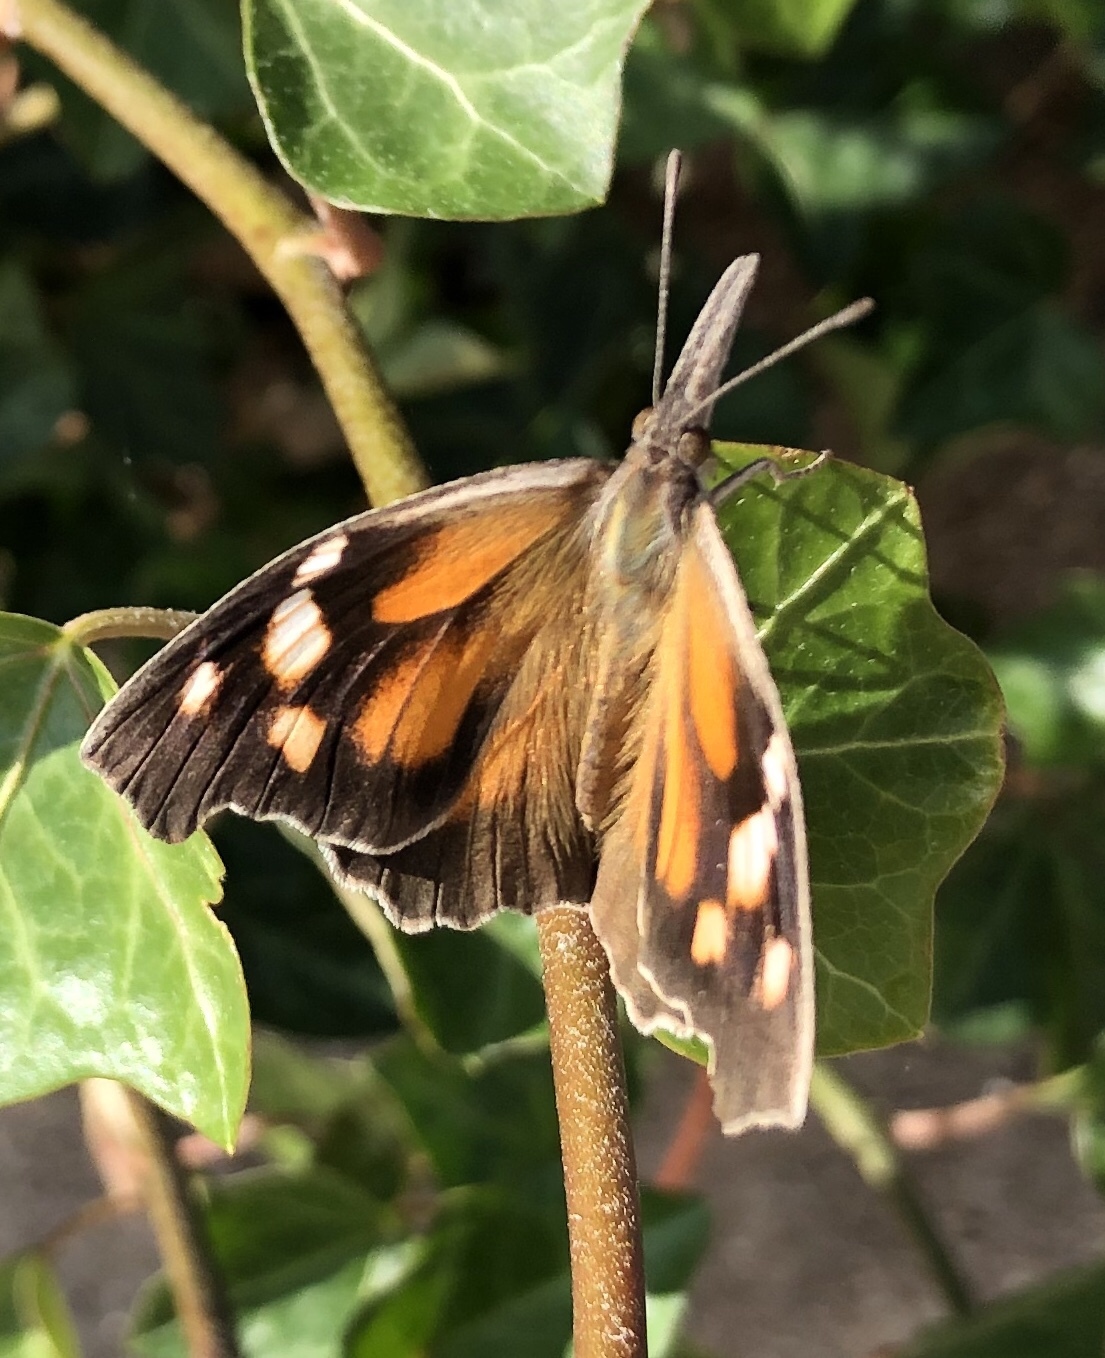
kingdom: Animalia
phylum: Arthropoda
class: Insecta
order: Lepidoptera
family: Nymphalidae
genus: Libytheana
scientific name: Libytheana carinenta
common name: American snout
